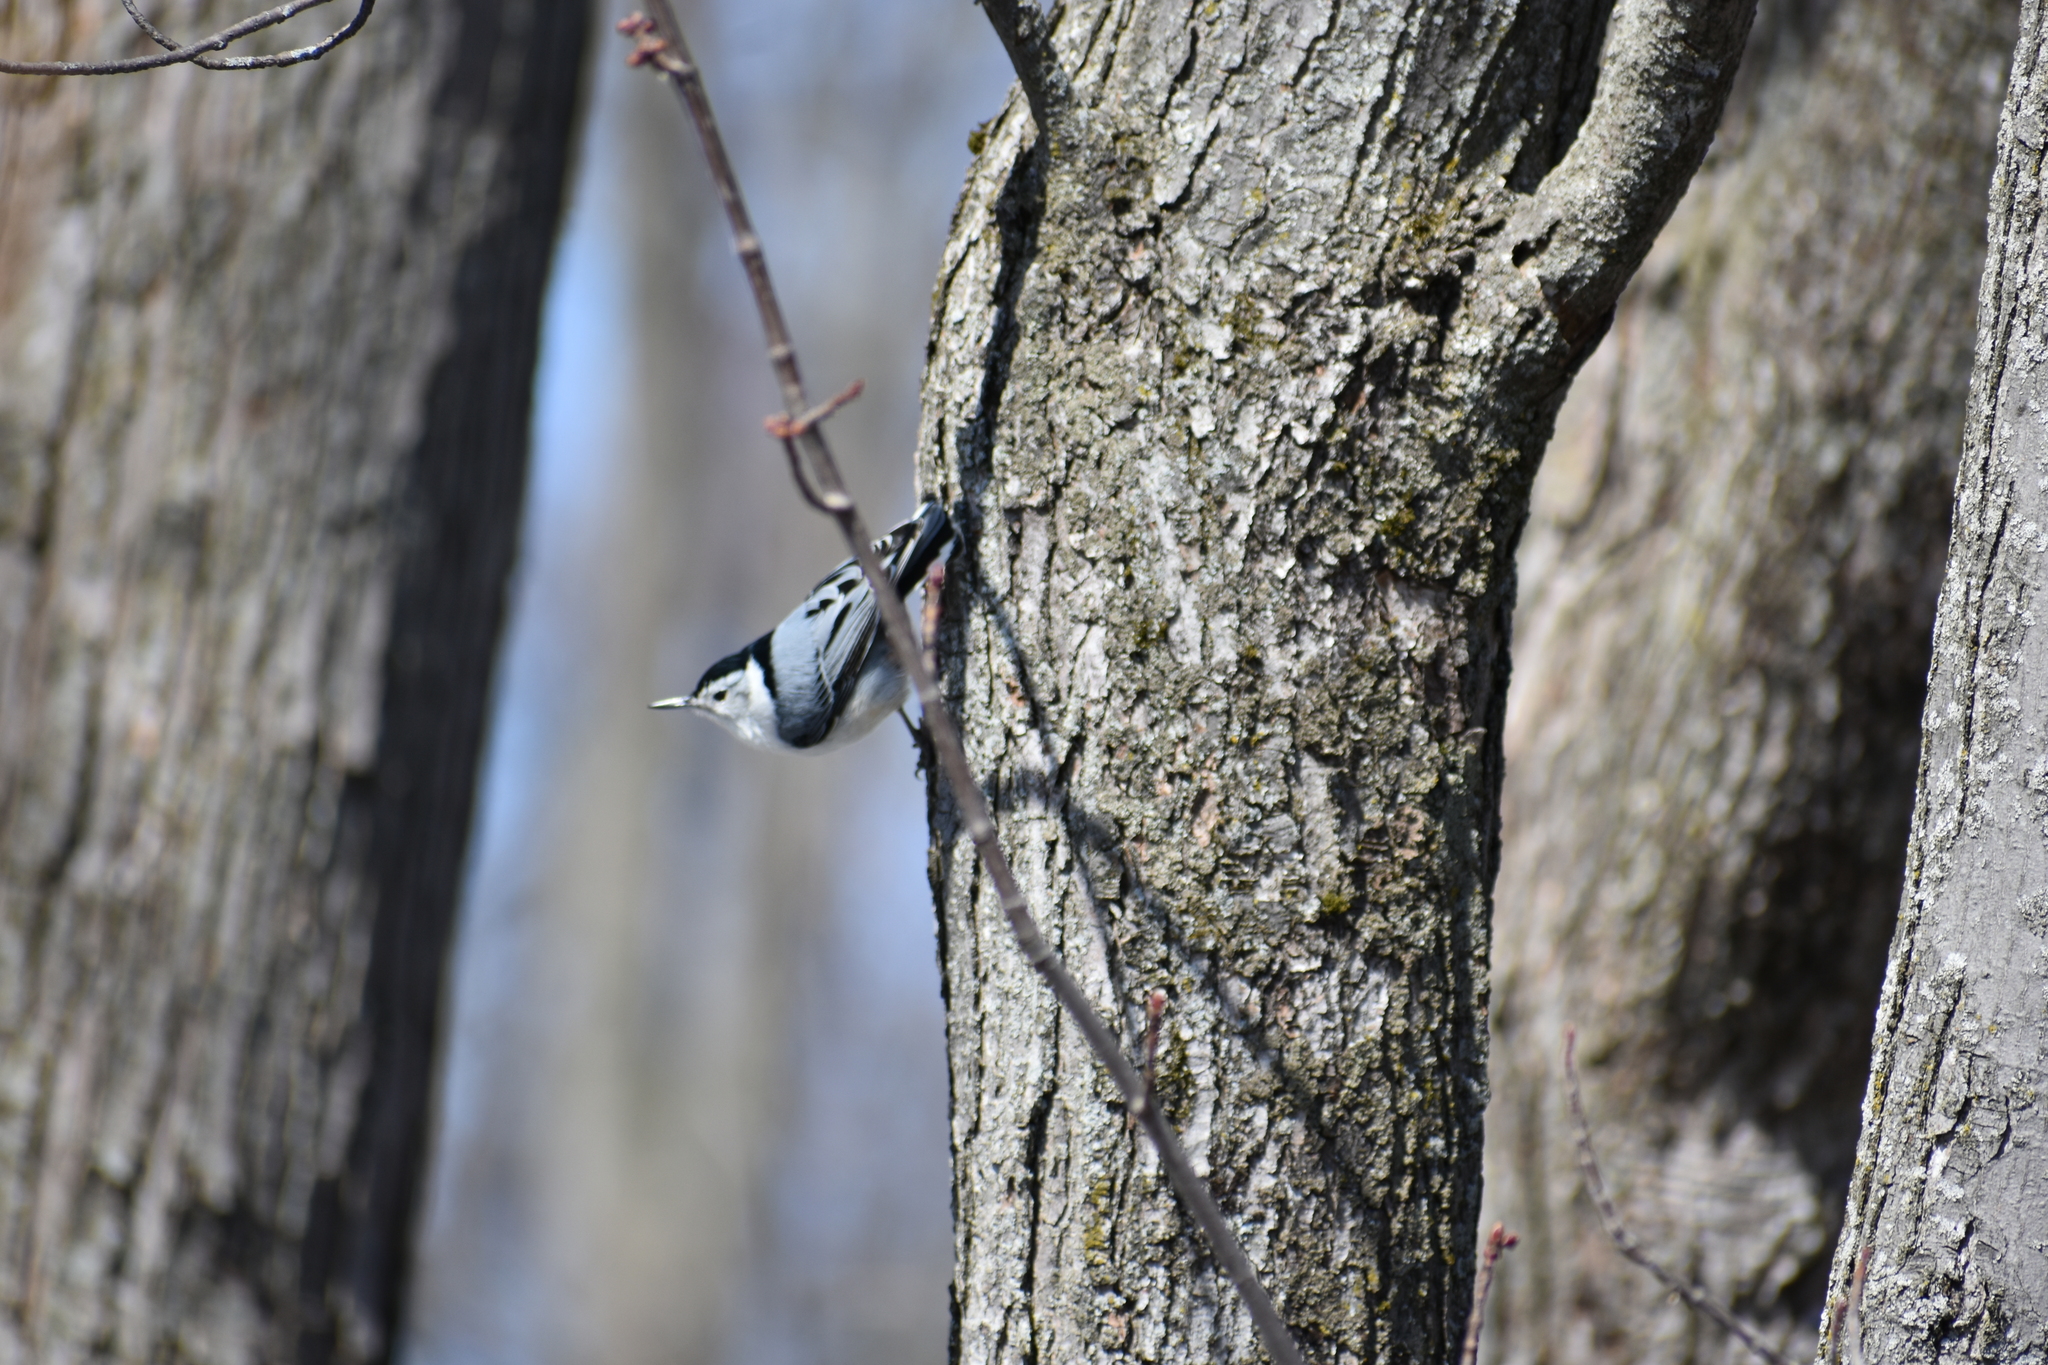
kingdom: Animalia
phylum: Chordata
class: Aves
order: Passeriformes
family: Sittidae
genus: Sitta
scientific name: Sitta carolinensis
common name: White-breasted nuthatch
